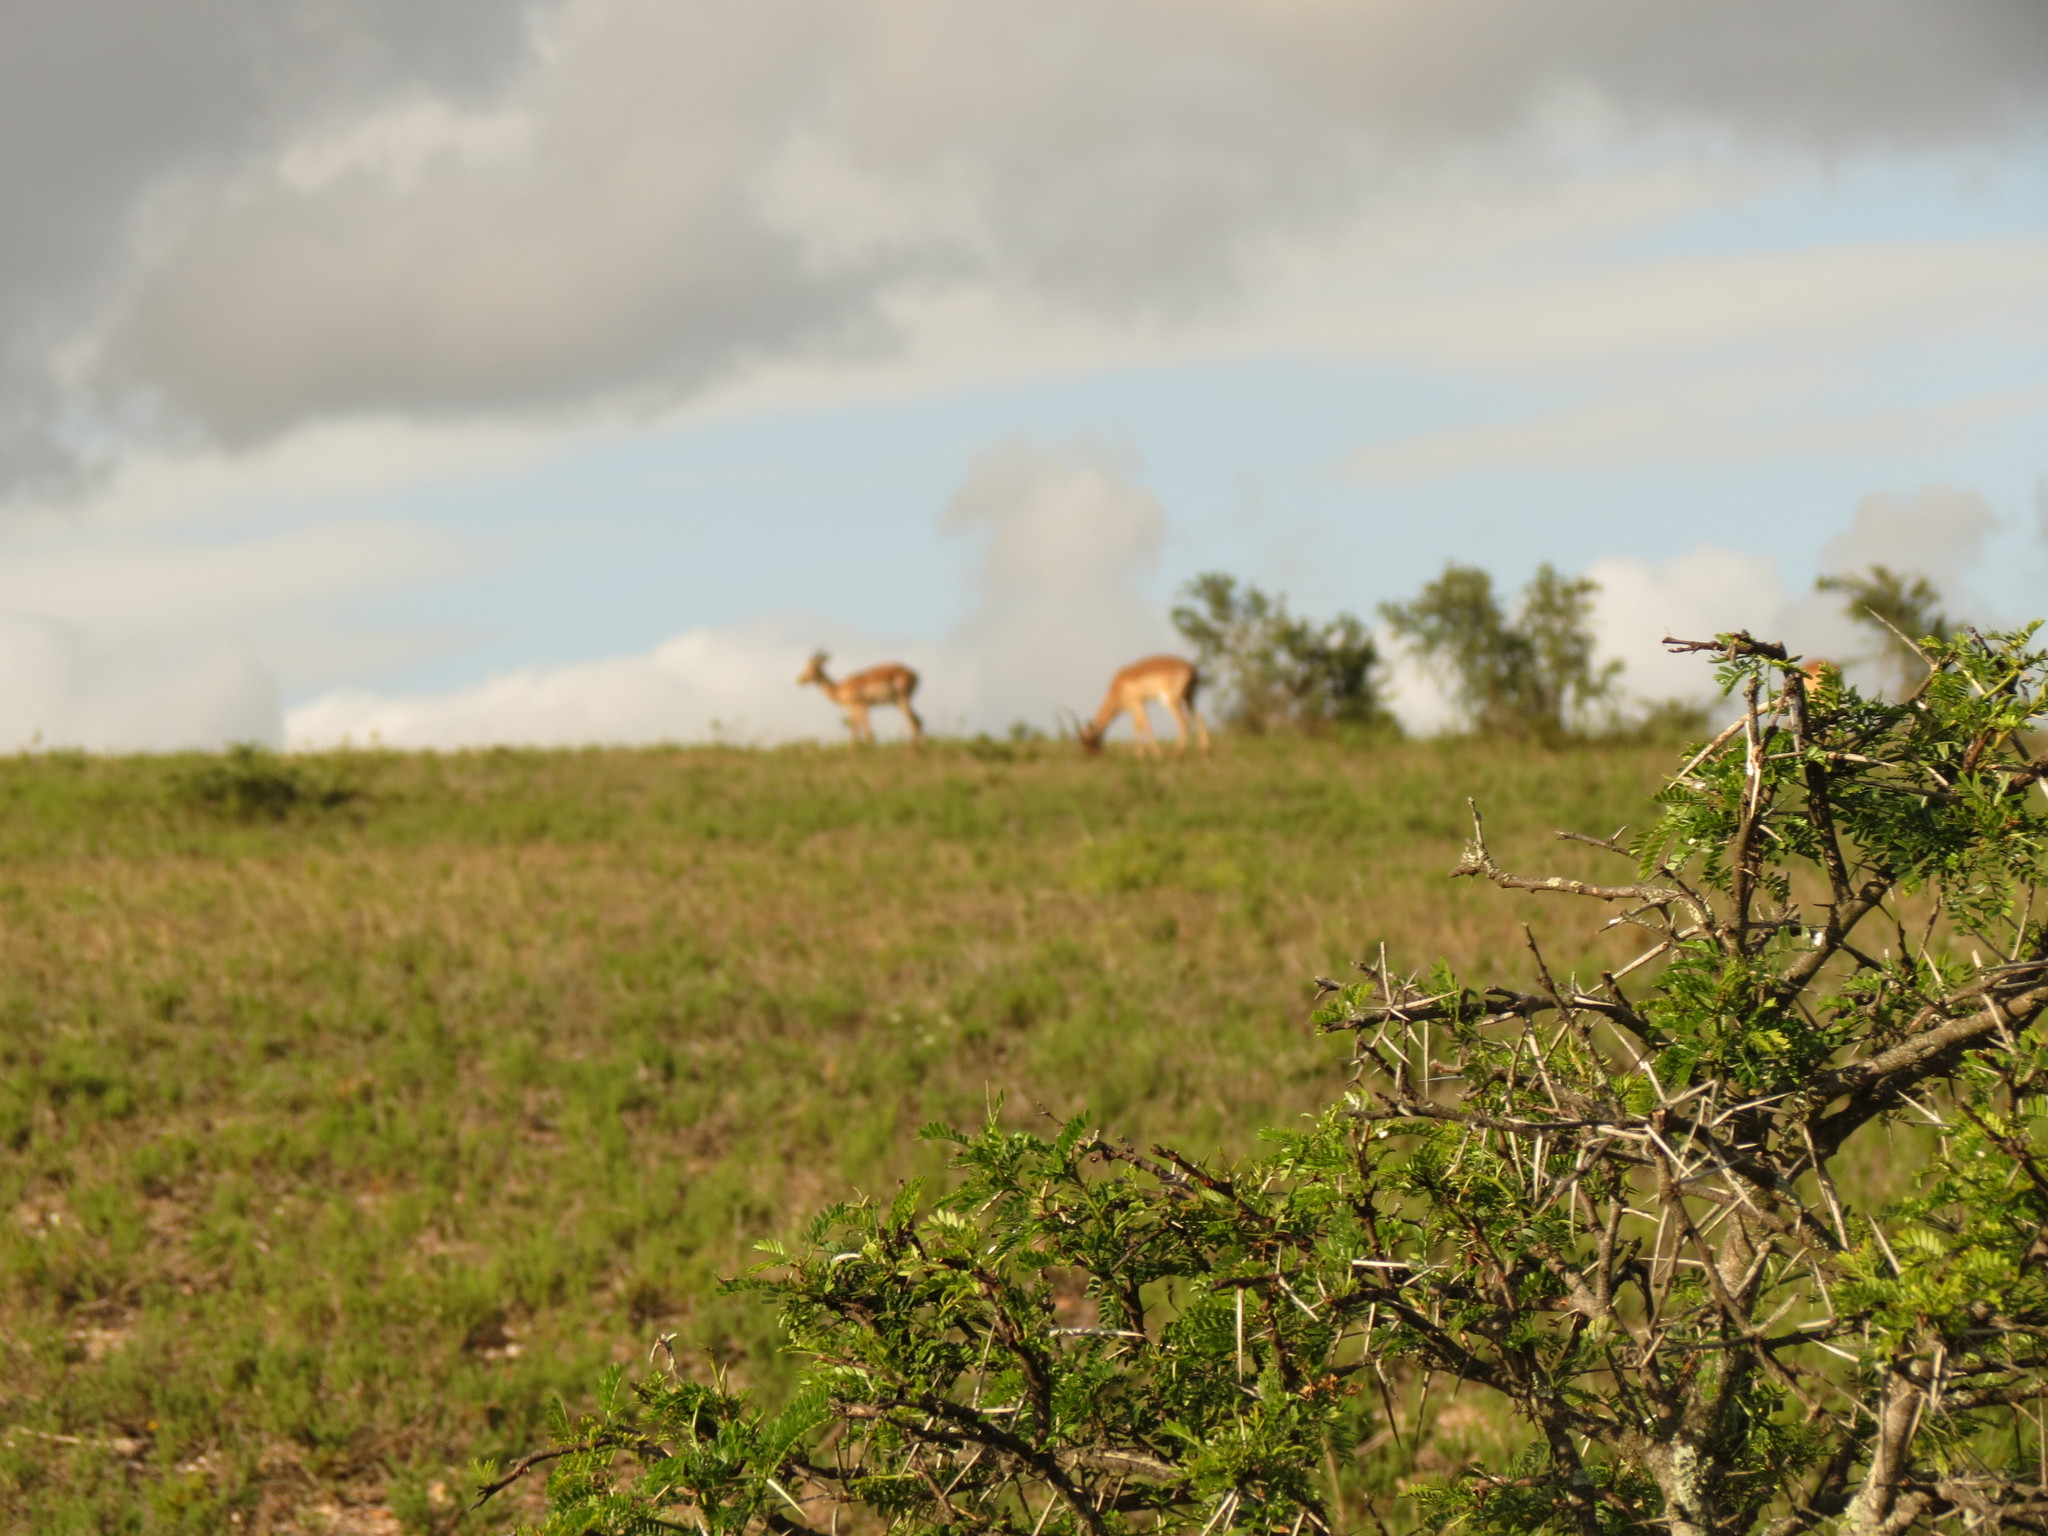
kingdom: Plantae
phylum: Tracheophyta
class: Magnoliopsida
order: Fabales
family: Fabaceae
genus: Vachellia
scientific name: Vachellia karroo
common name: Sweet thorn
